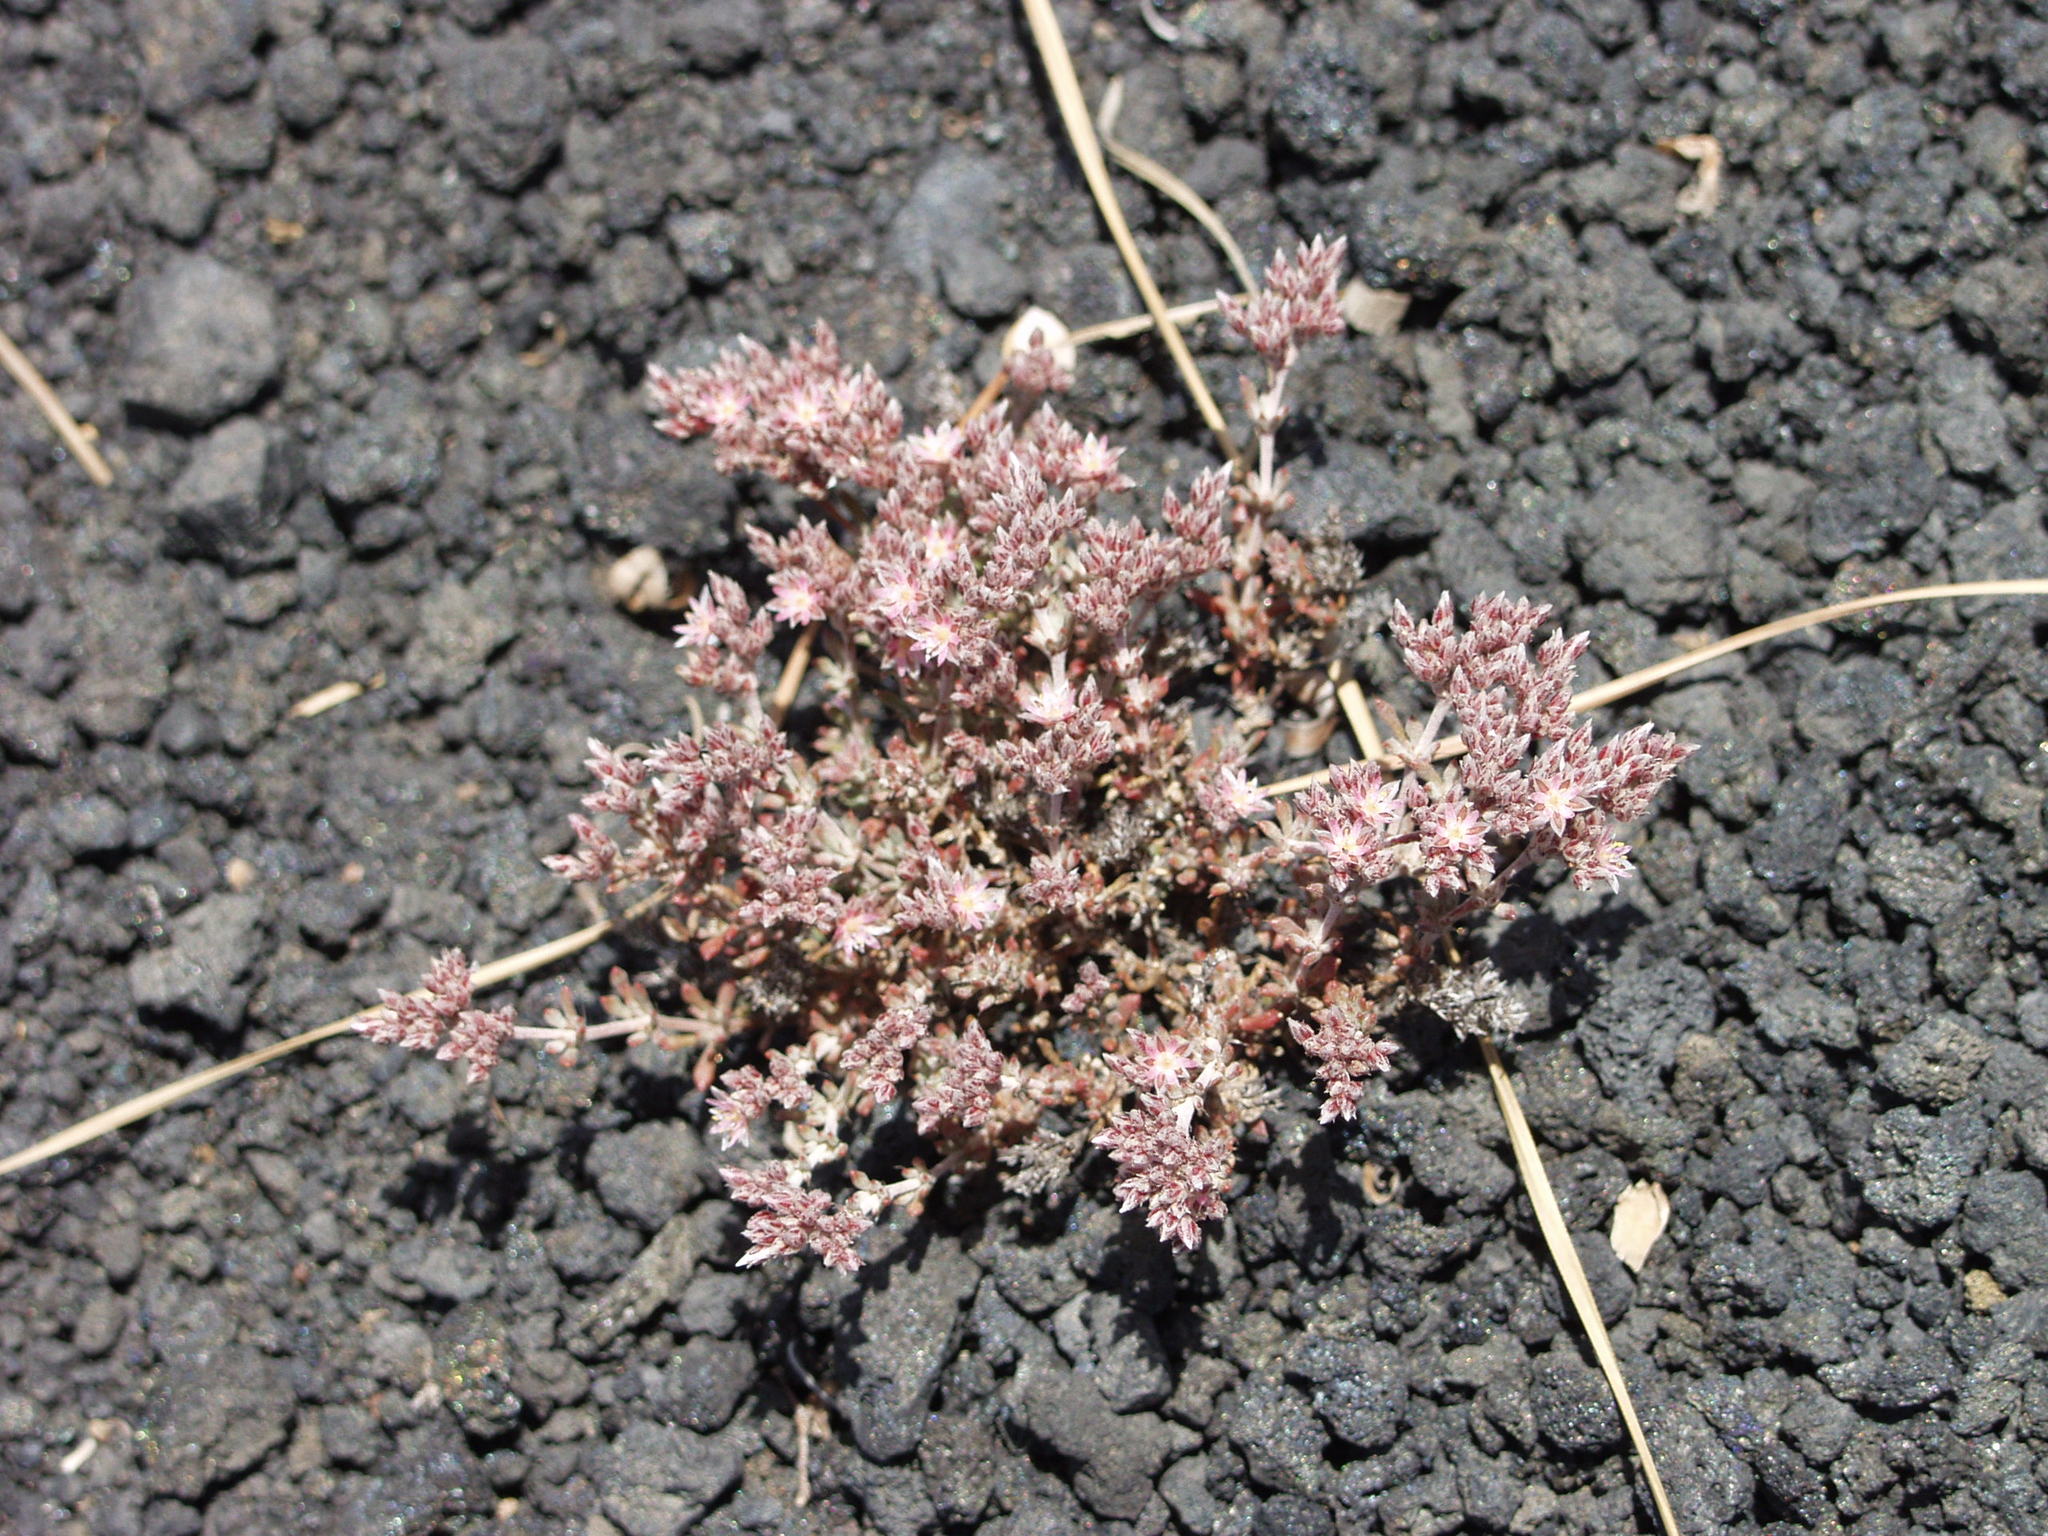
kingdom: Plantae
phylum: Tracheophyta
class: Magnoliopsida
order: Caryophyllales
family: Caryophyllaceae
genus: Polycarpaea
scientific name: Polycarpaea tenuis
